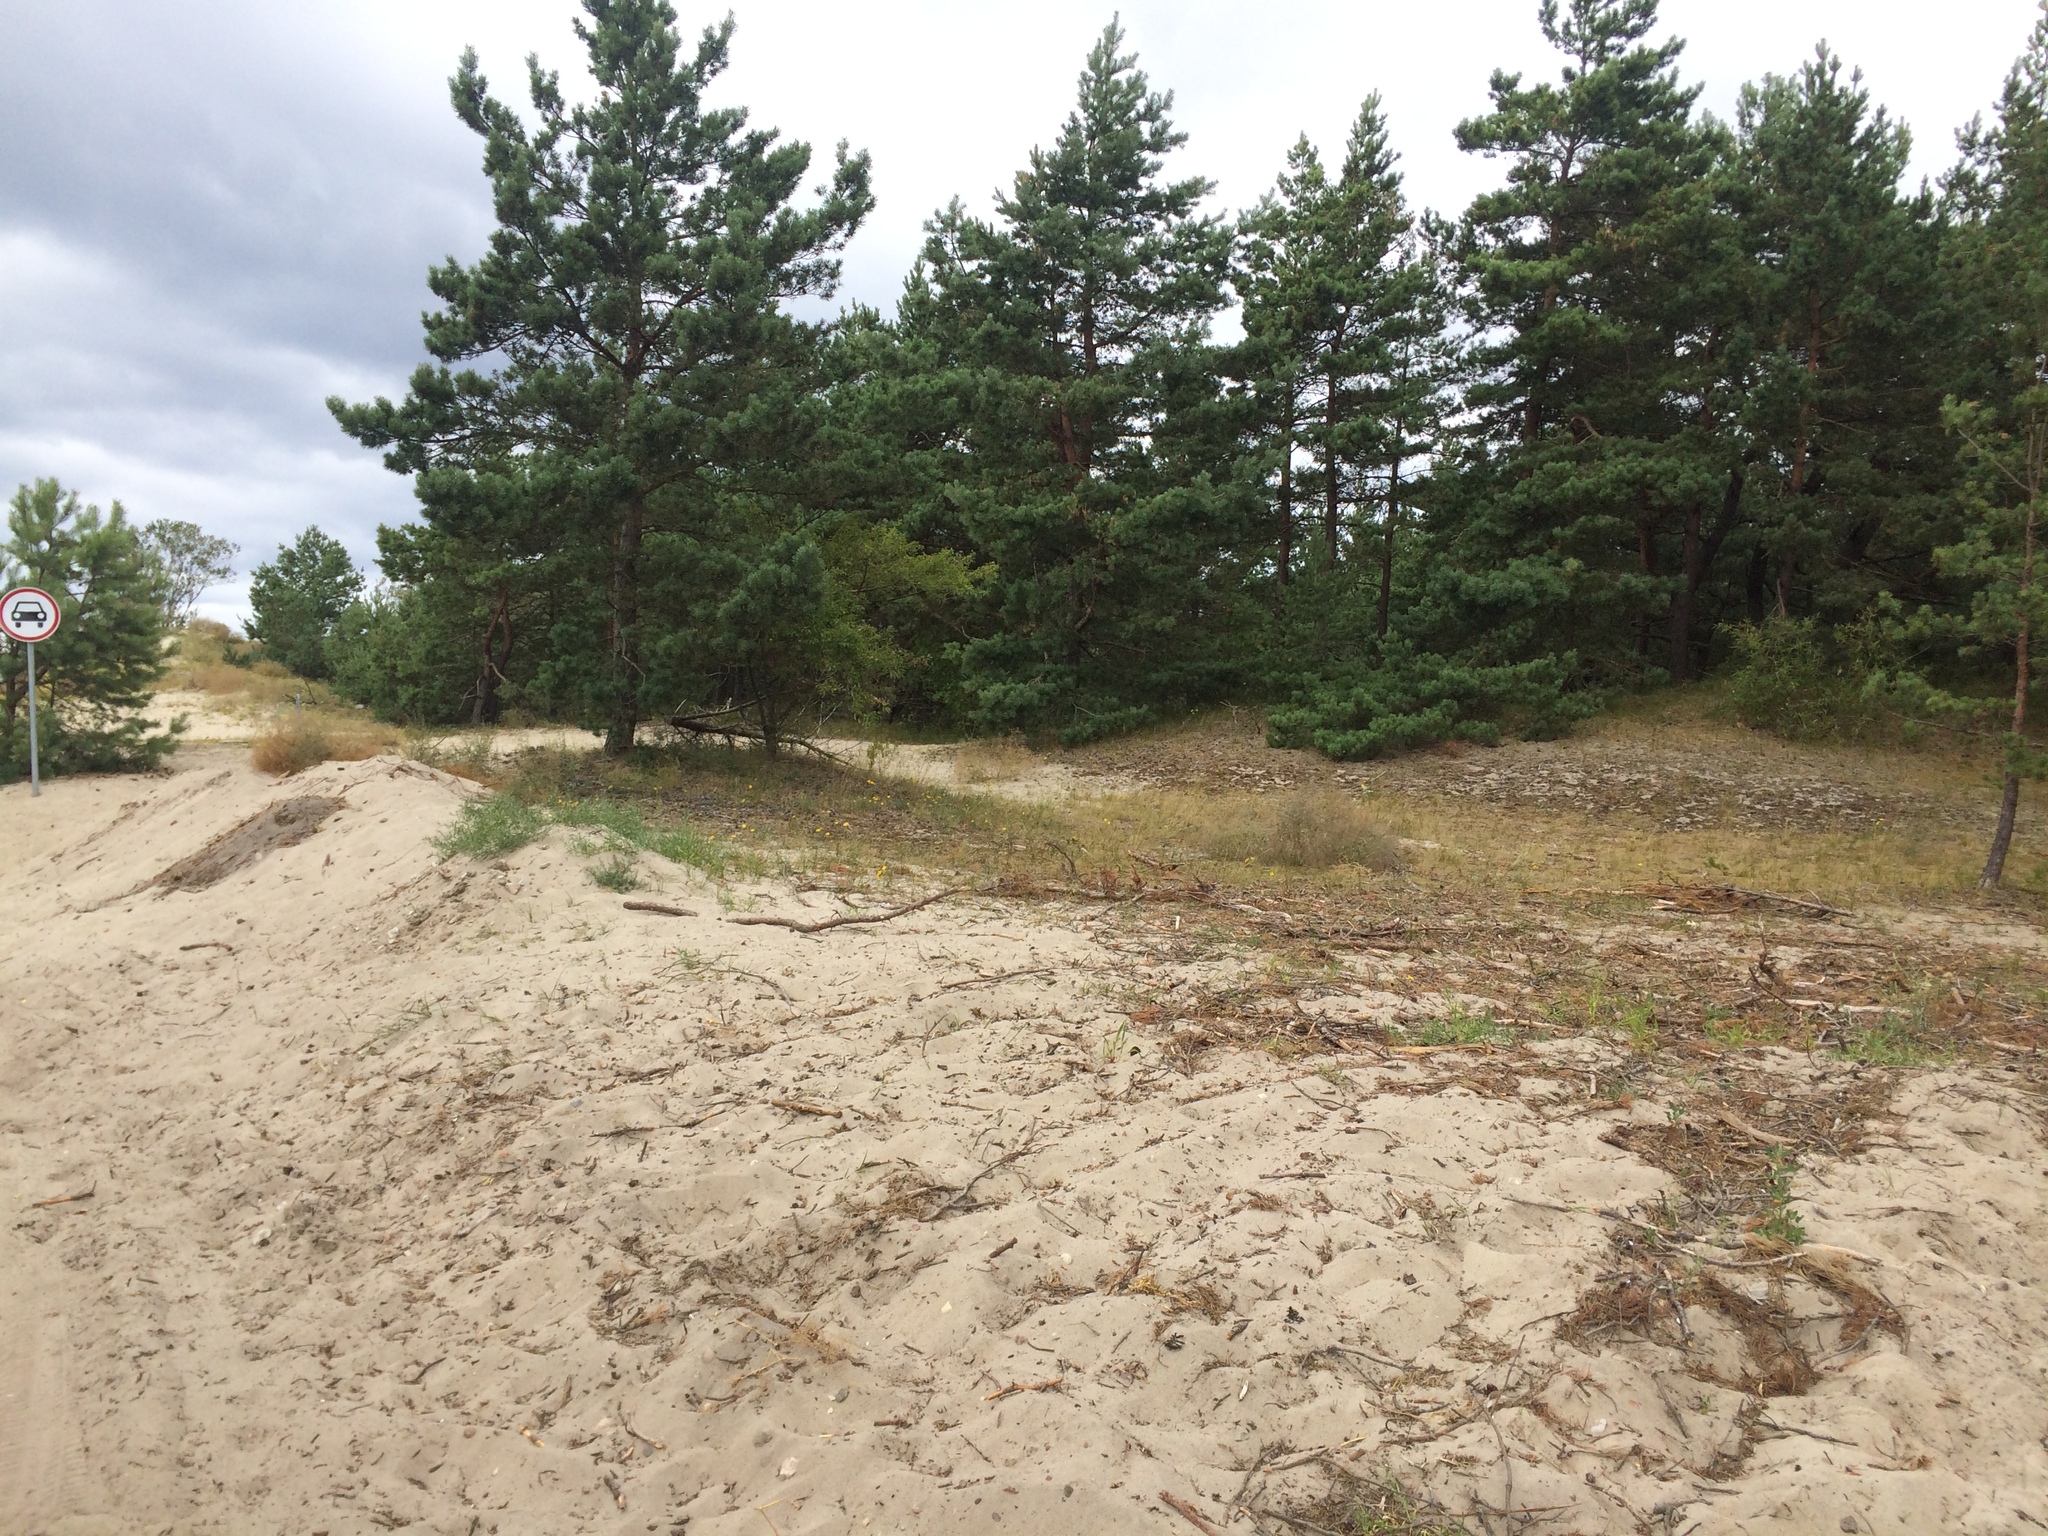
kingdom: Plantae
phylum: Tracheophyta
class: Pinopsida
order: Pinales
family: Pinaceae
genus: Pinus
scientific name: Pinus sylvestris
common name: Scots pine
